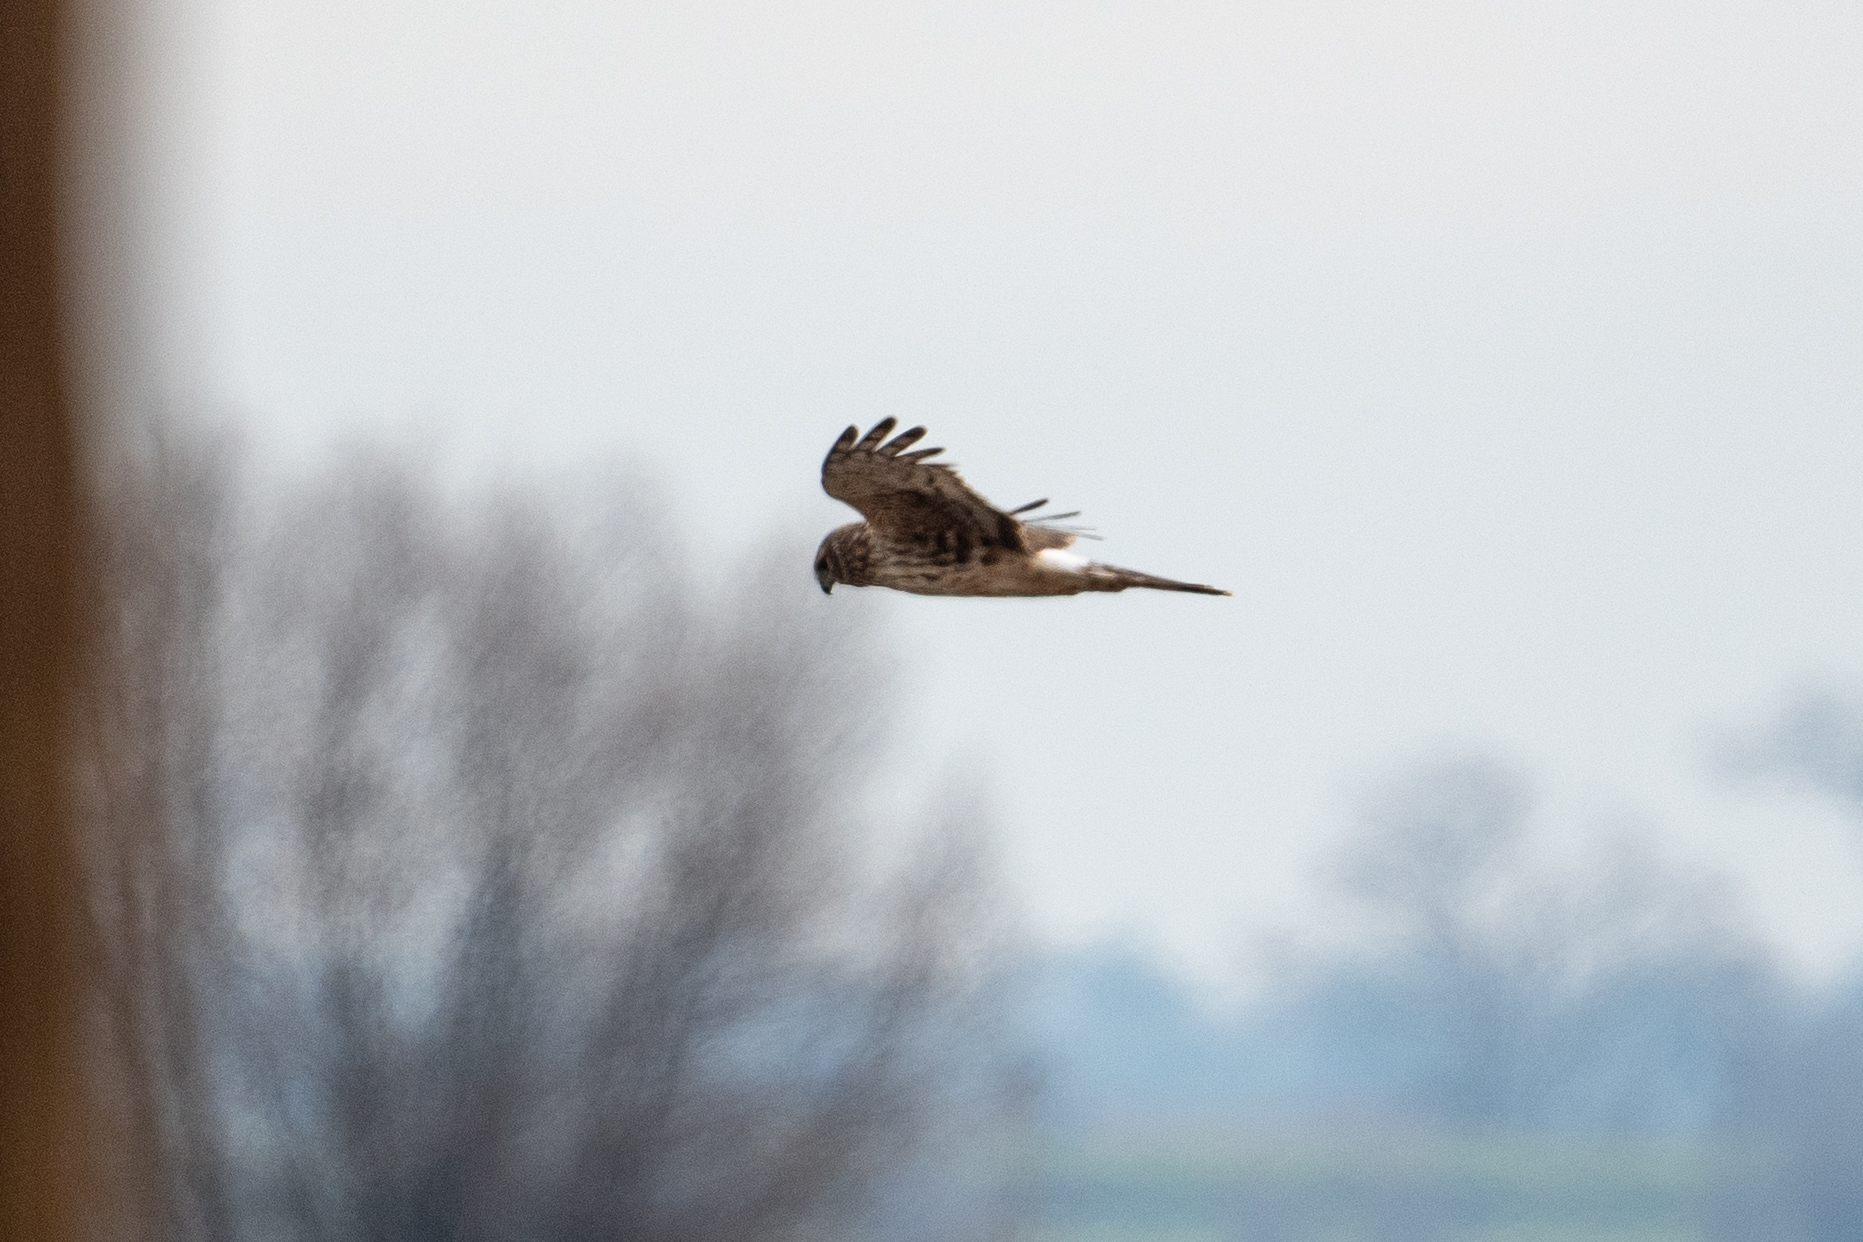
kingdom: Animalia
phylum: Chordata
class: Aves
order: Accipitriformes
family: Accipitridae
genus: Circus
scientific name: Circus cyaneus
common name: Hen harrier
